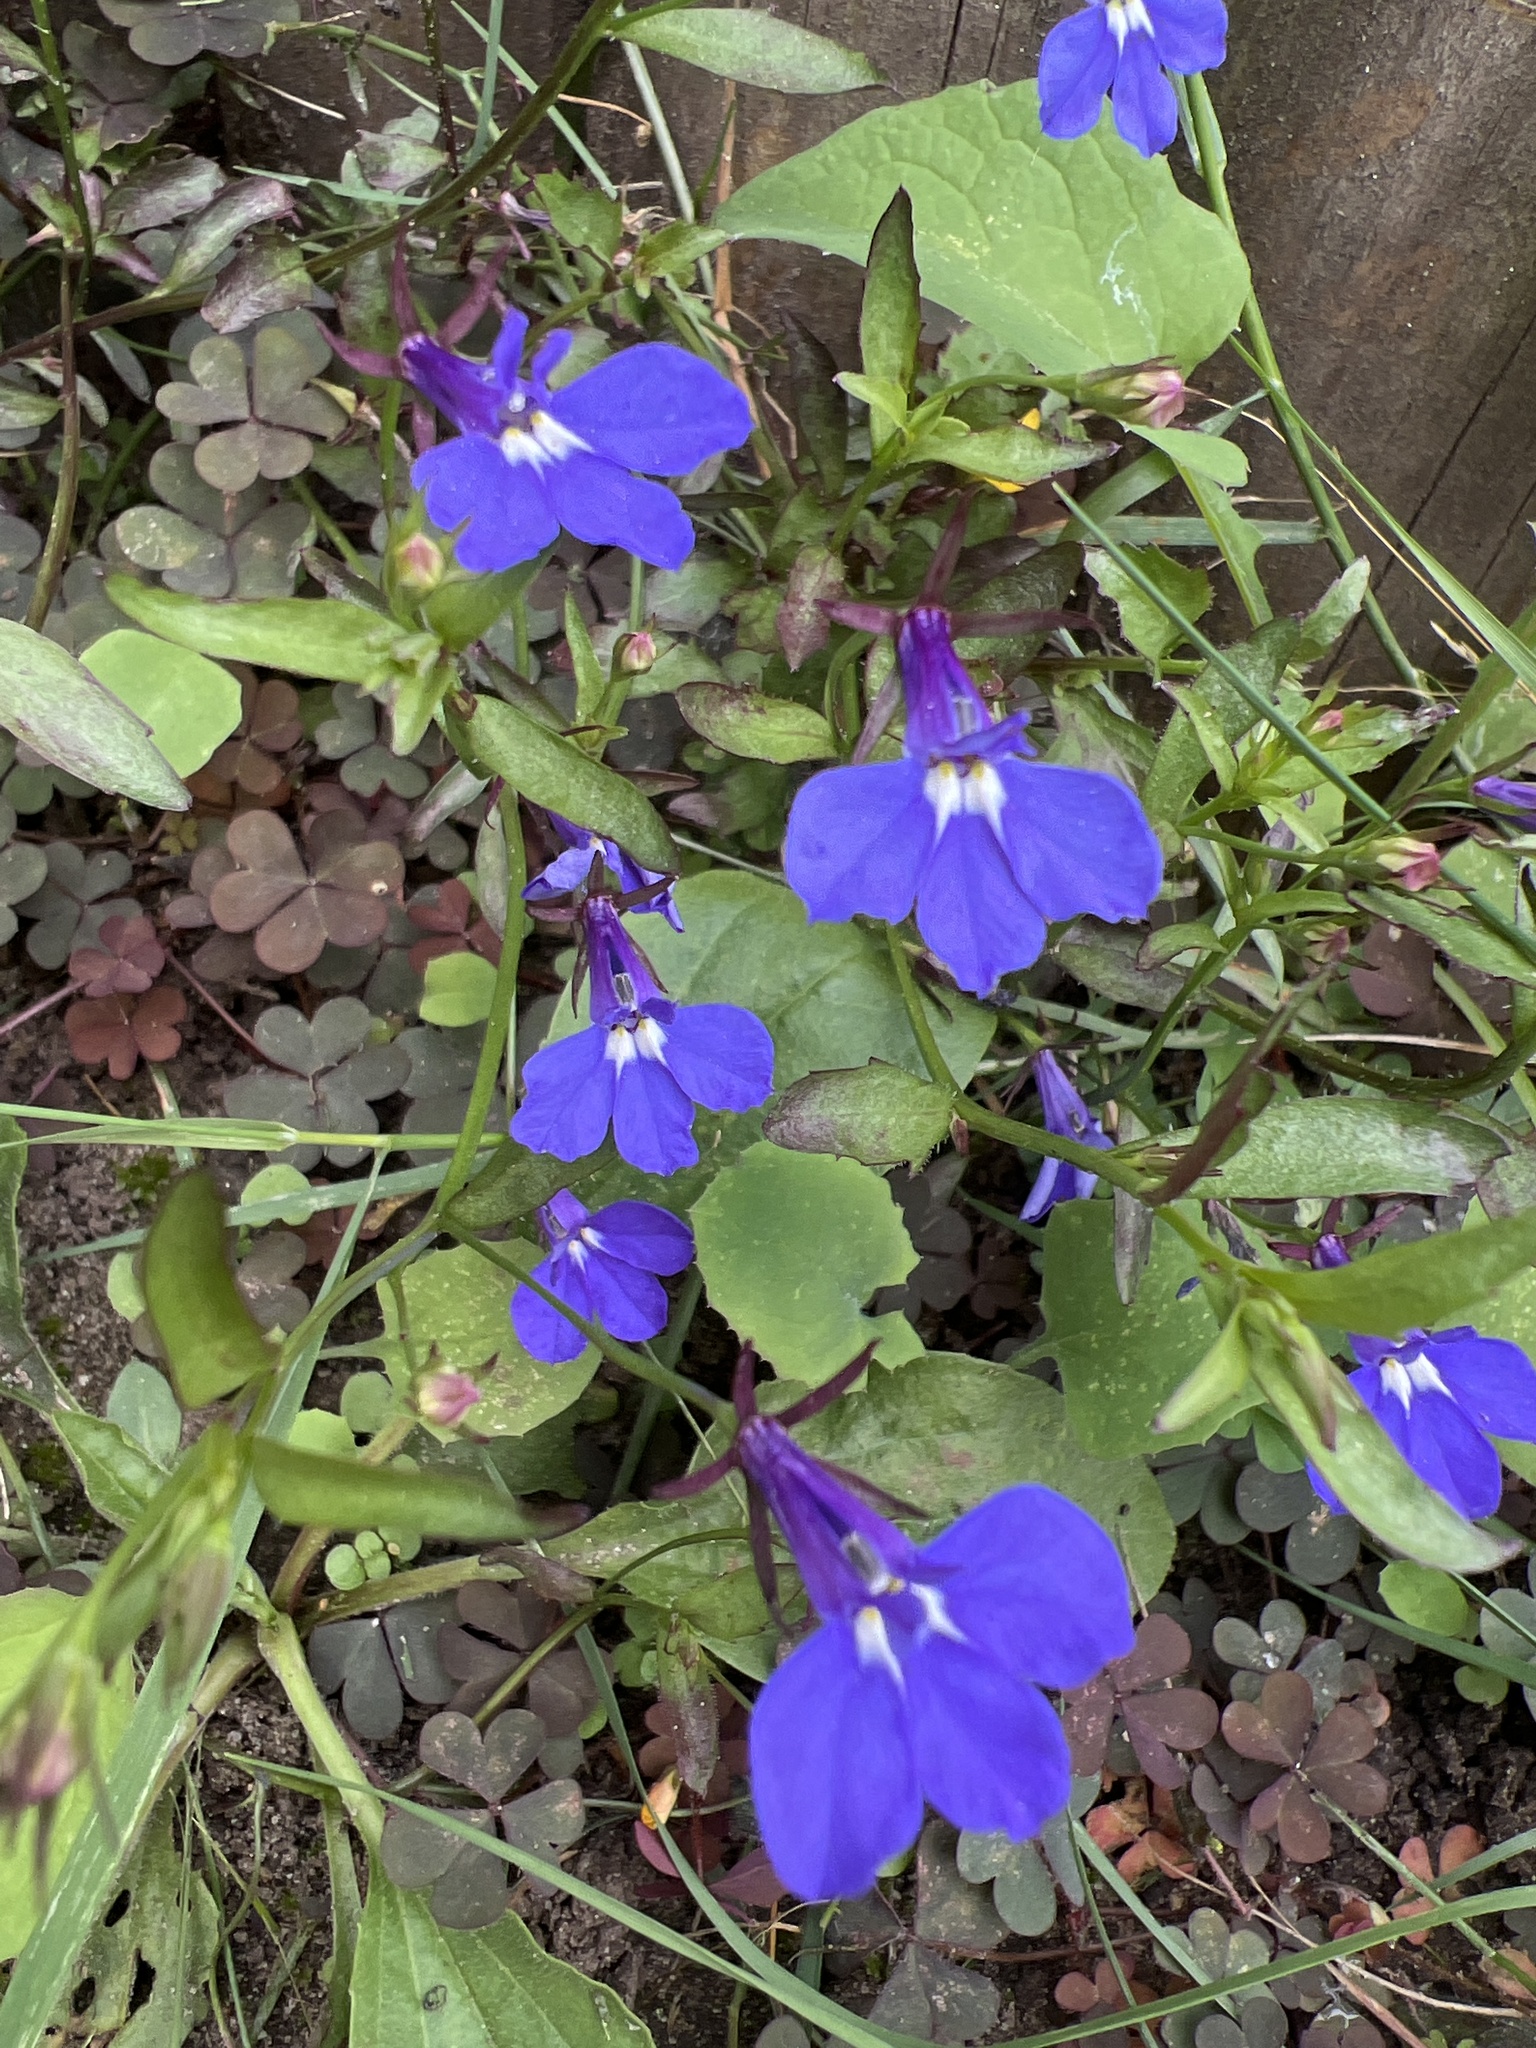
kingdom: Plantae
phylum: Tracheophyta
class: Magnoliopsida
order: Asterales
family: Campanulaceae
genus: Lobelia
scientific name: Lobelia erinus
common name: Edging lobelia
